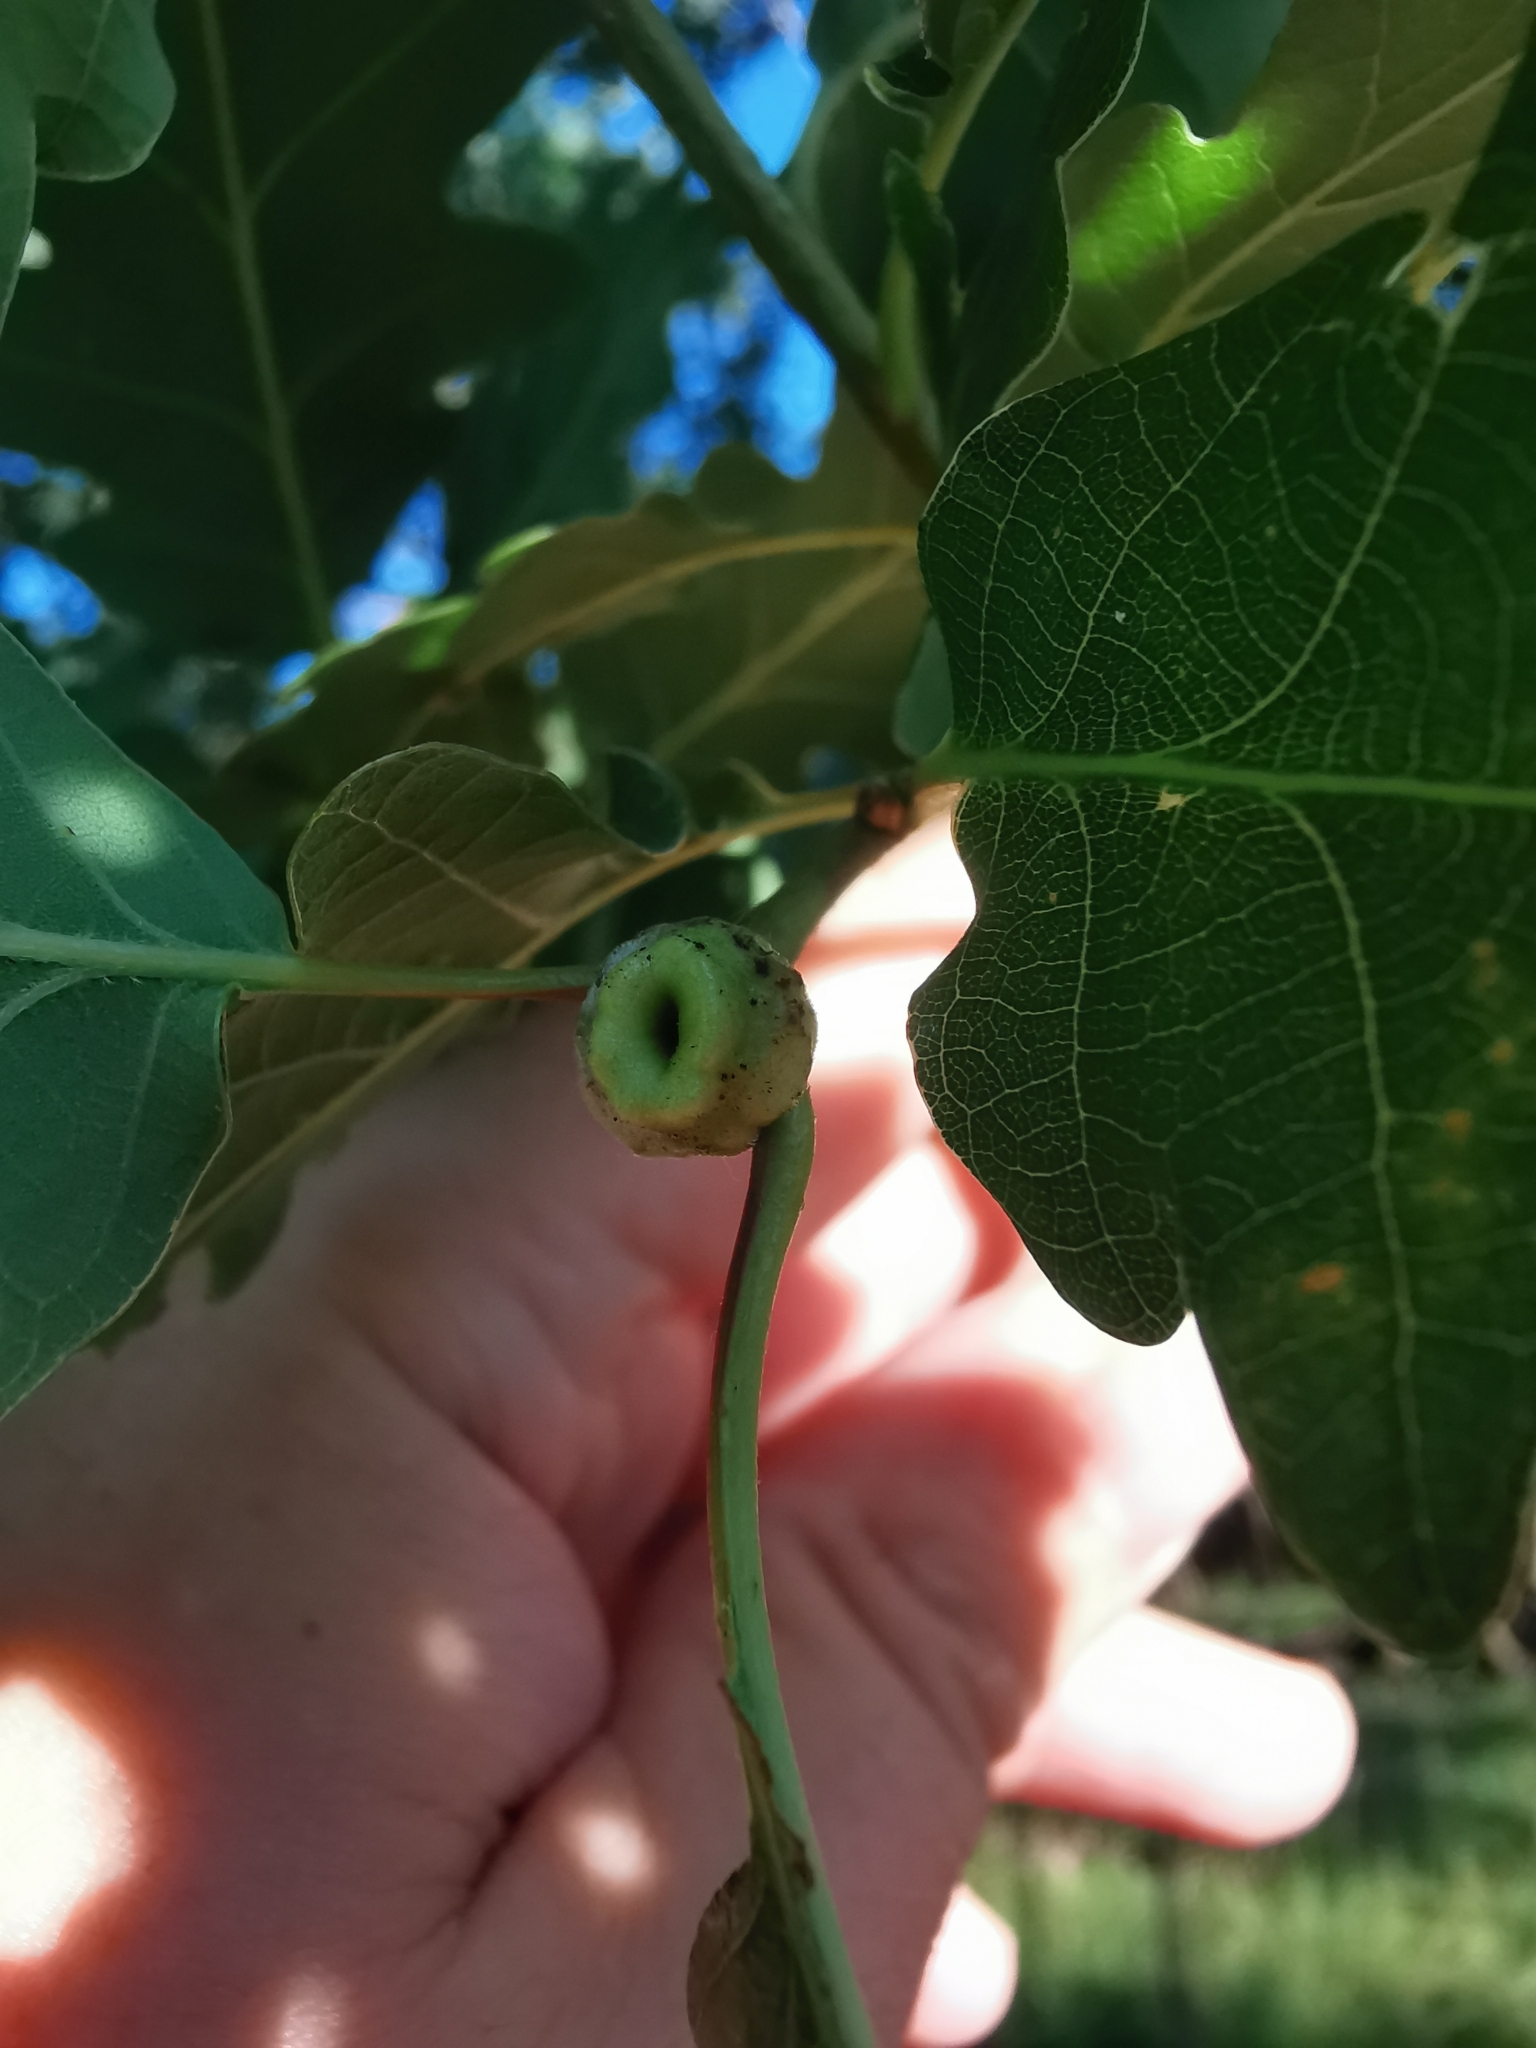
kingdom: Animalia
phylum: Arthropoda
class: Insecta
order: Hymenoptera
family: Cynipidae
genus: Andricus
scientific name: Andricus glutinosus
